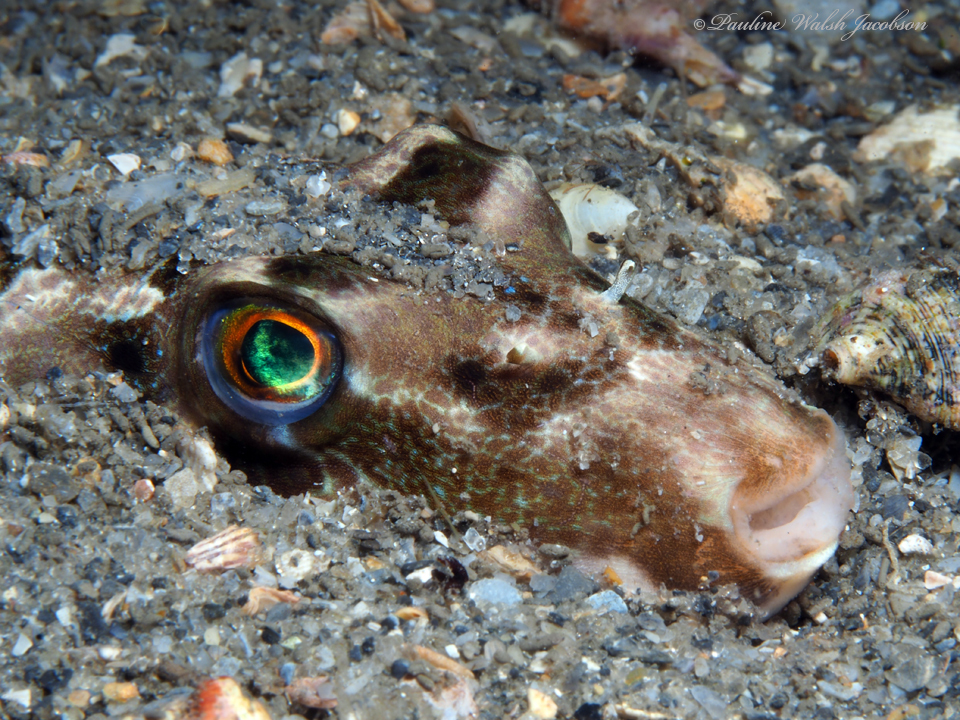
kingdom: Animalia
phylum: Chordata
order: Tetraodontiformes
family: Tetraodontidae
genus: Sphoeroides
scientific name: Sphoeroides spengleri
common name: Bandtail puffer
